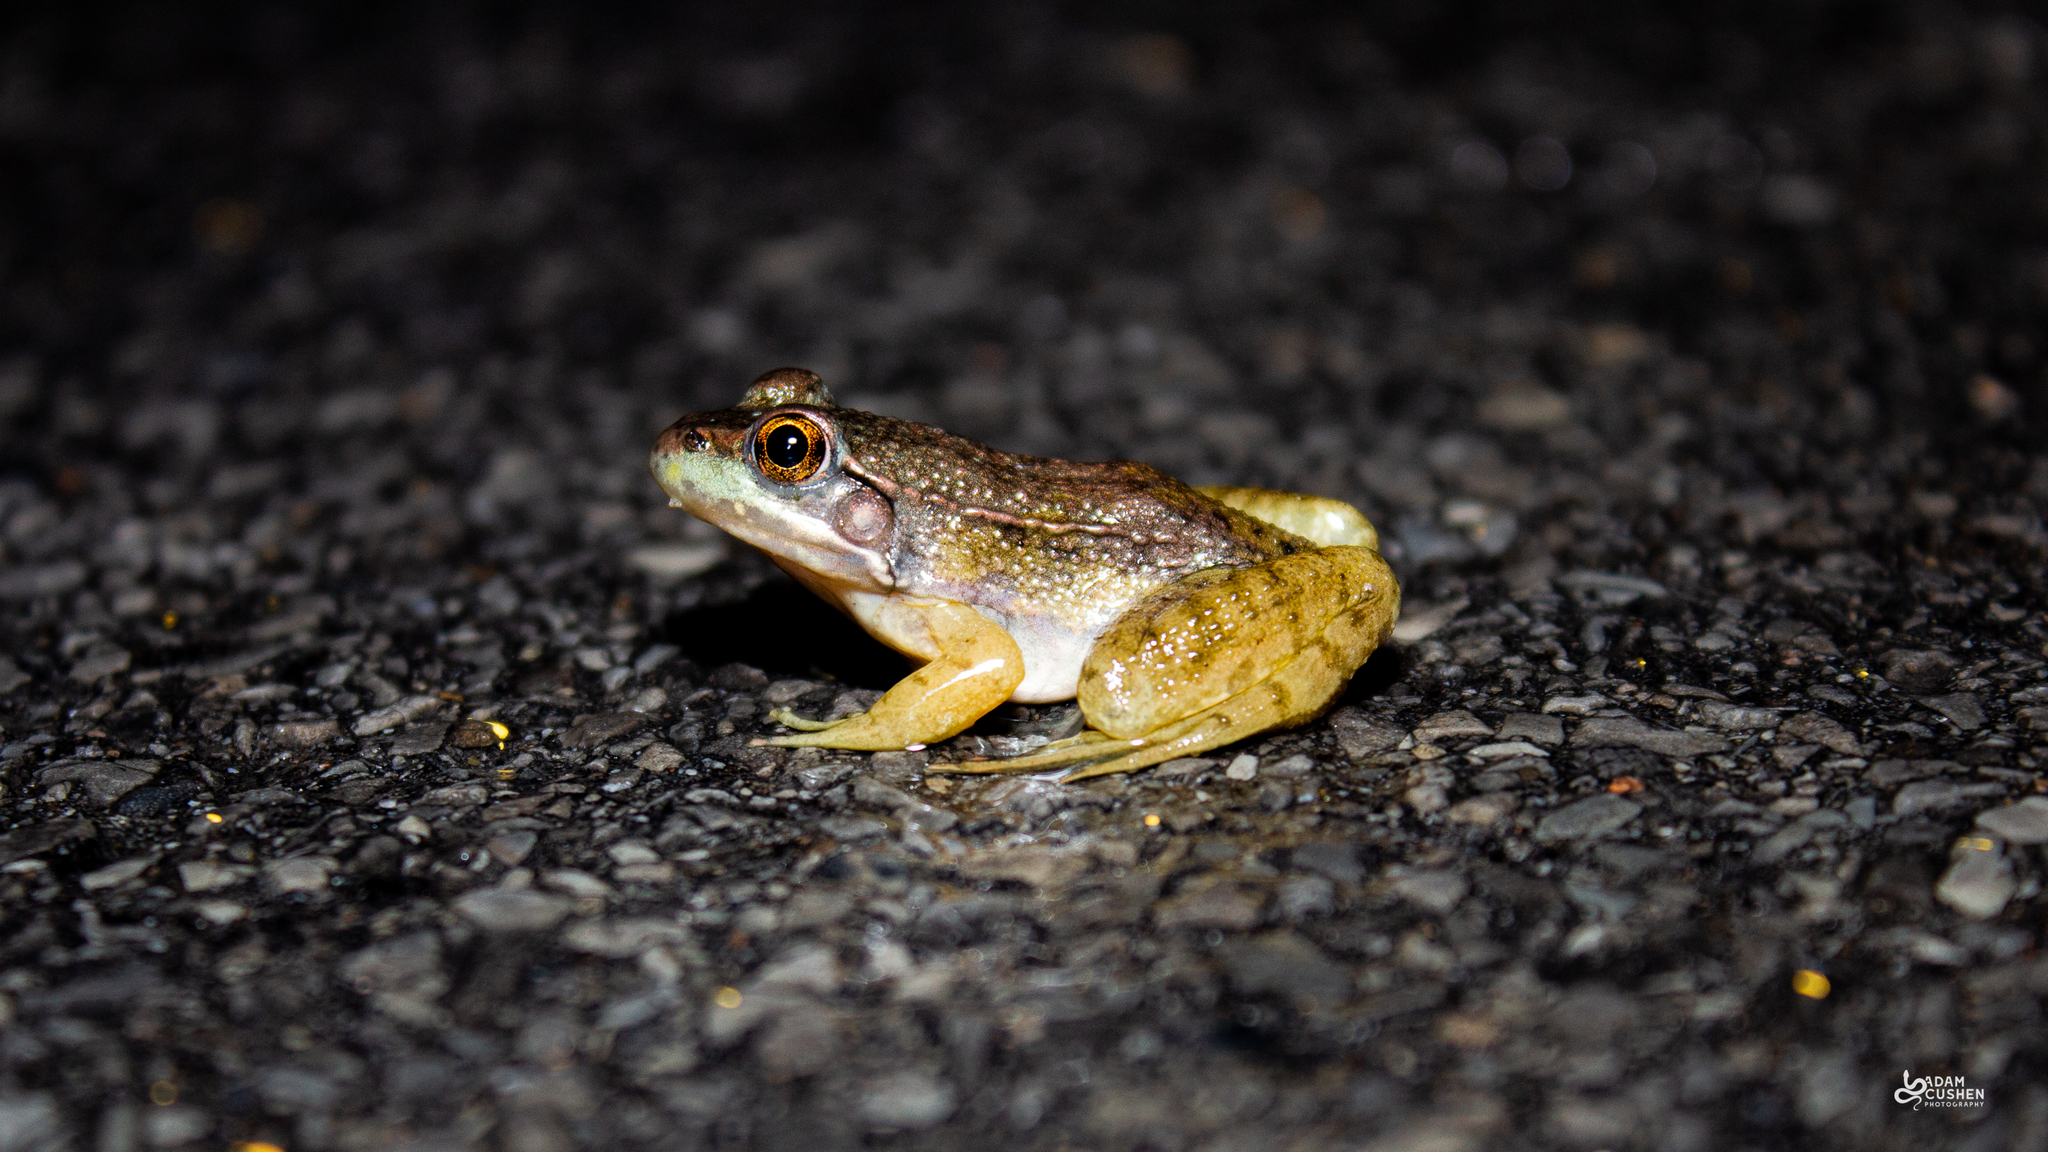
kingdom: Animalia
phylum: Chordata
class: Amphibia
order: Anura
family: Ranidae
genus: Lithobates
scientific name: Lithobates clamitans
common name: Green frog
